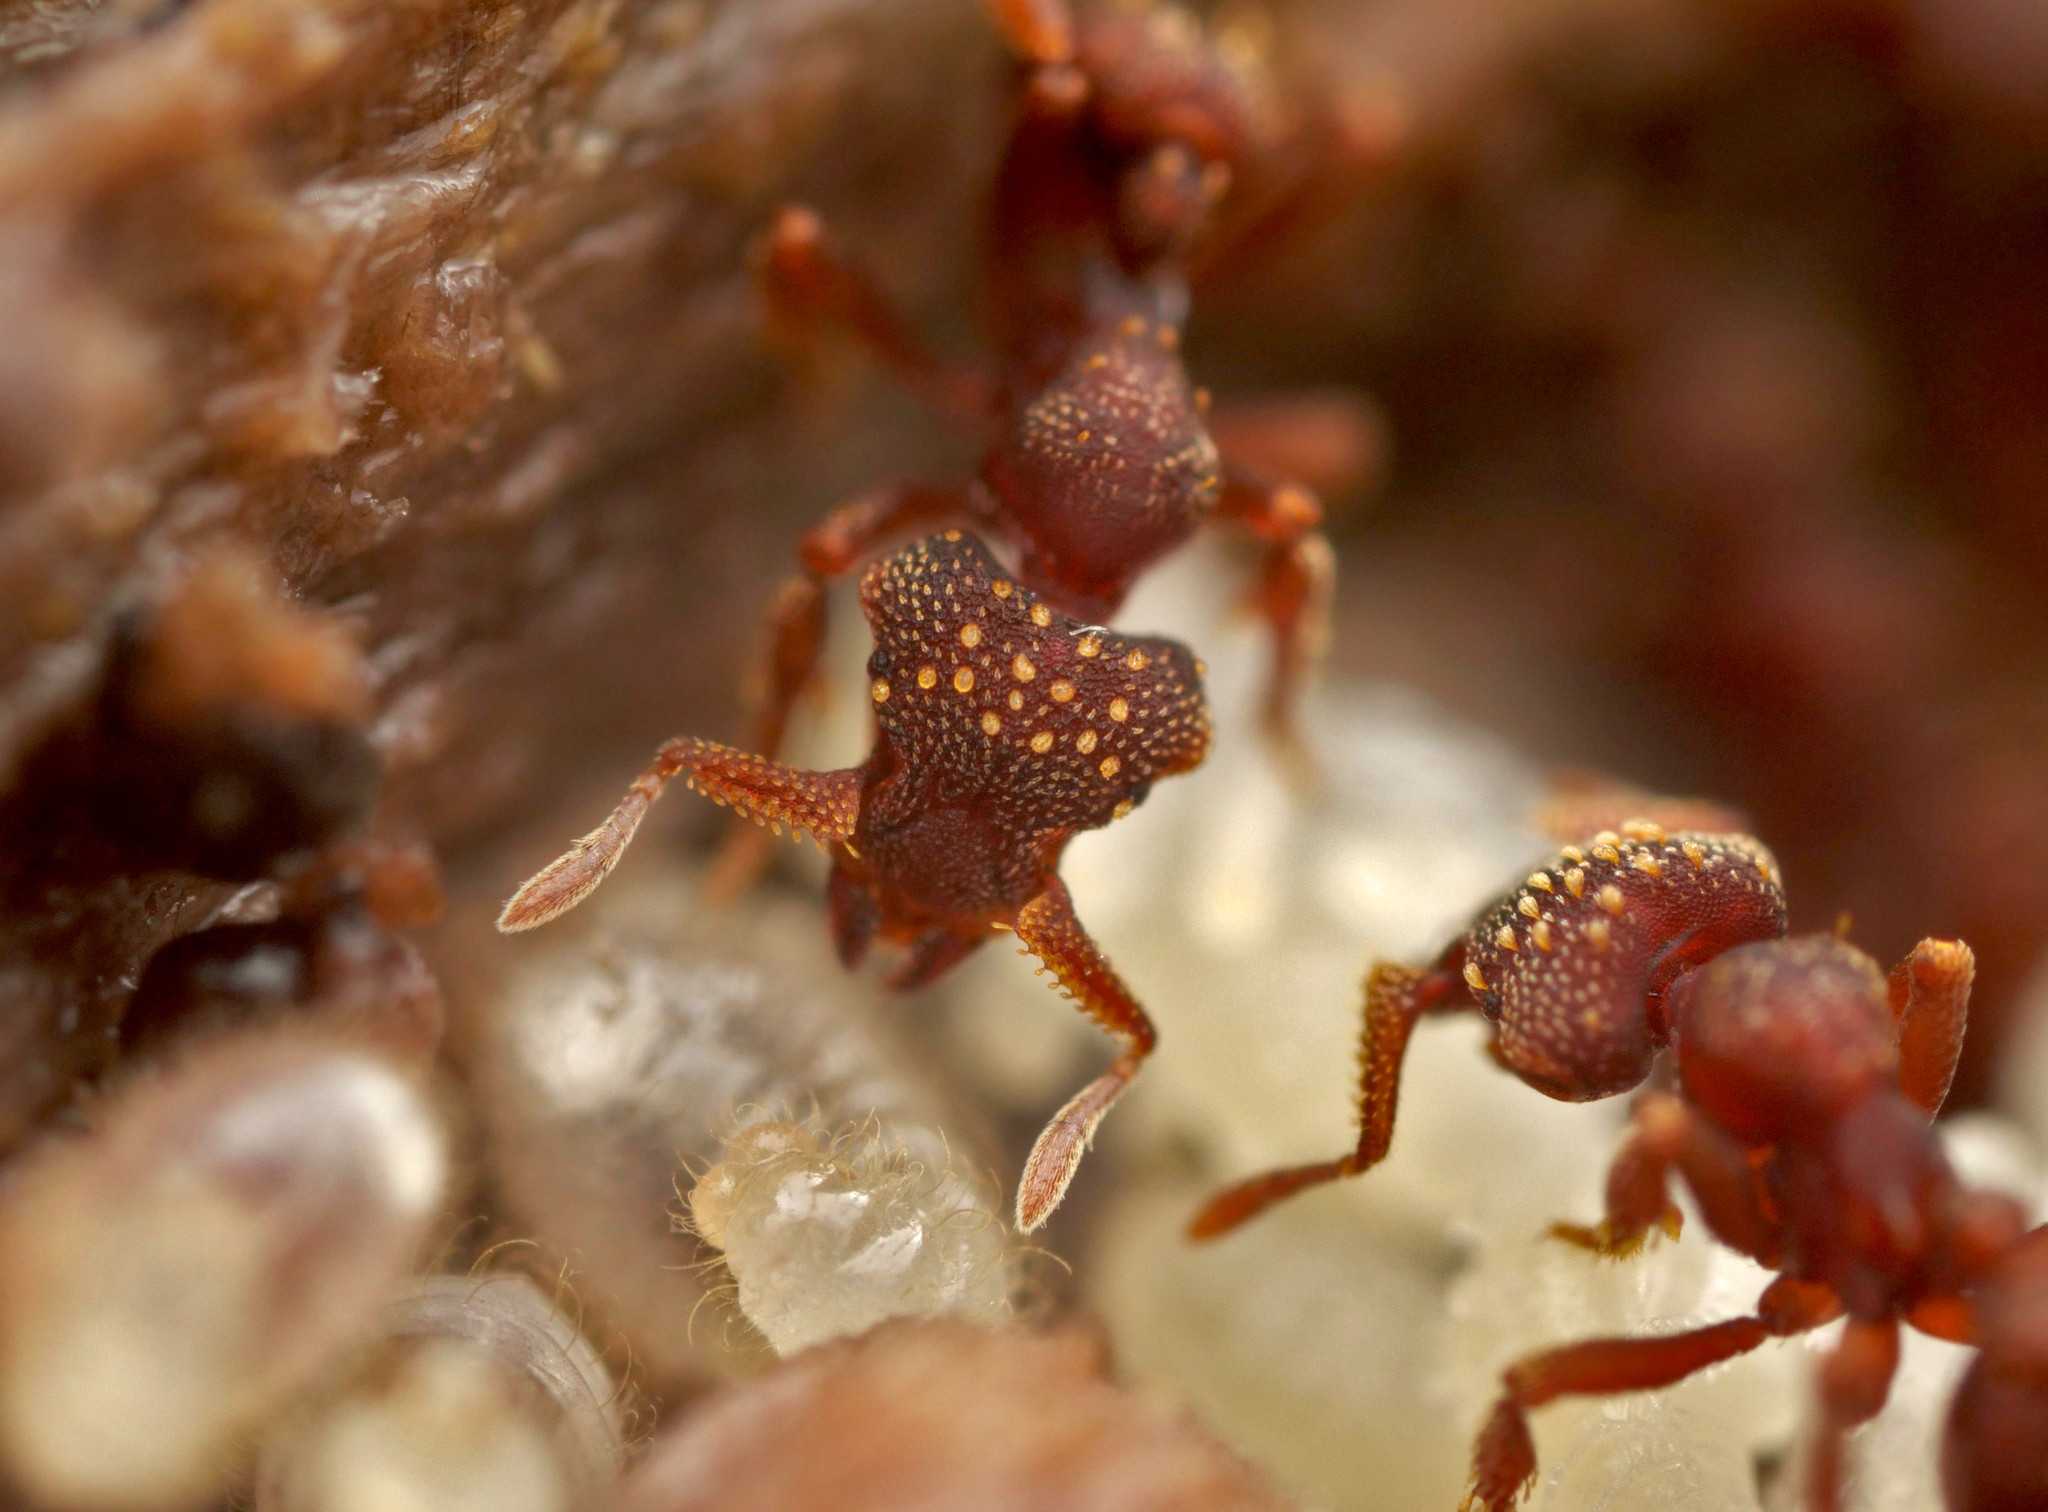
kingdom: Animalia
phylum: Arthropoda
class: Insecta
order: Hymenoptera
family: Formicidae
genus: Eurhopalothrix
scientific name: Eurhopalothrix gravis
